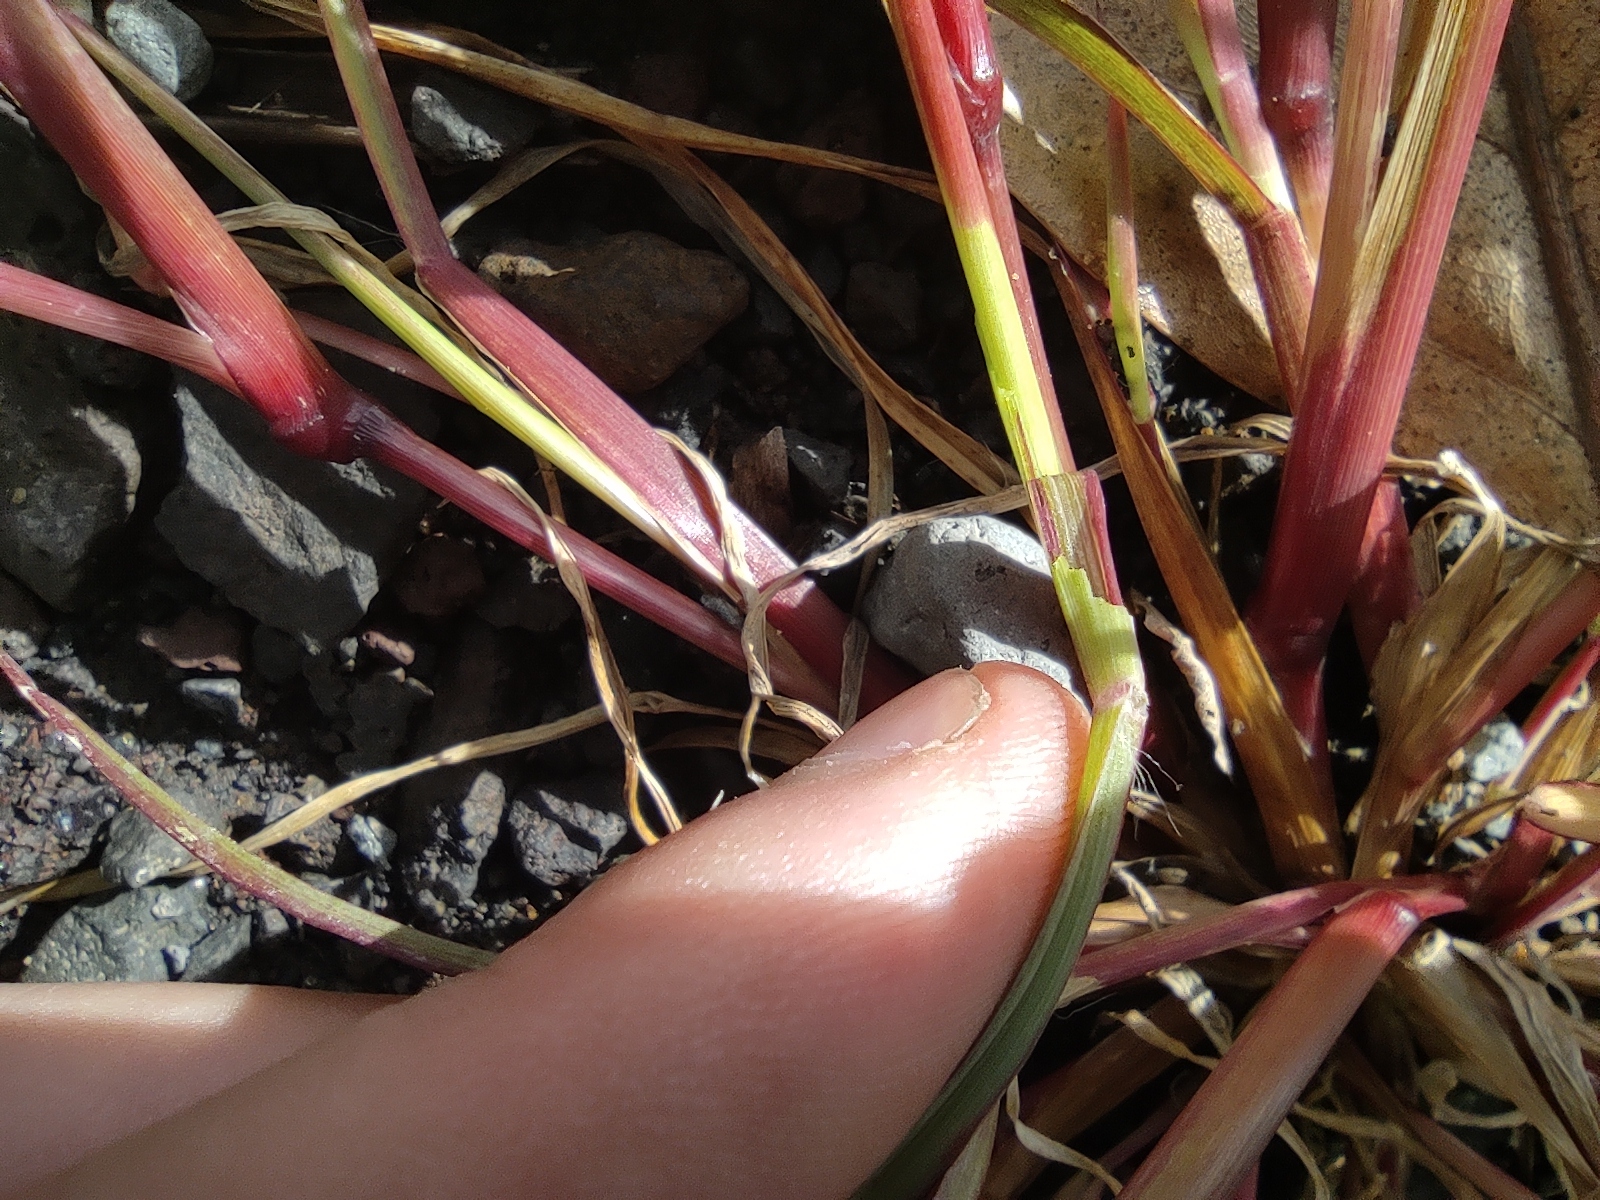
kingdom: Plantae
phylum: Tracheophyta
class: Liliopsida
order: Poales
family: Poaceae
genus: Setaria
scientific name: Setaria pumila
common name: Yellow bristle-grass
